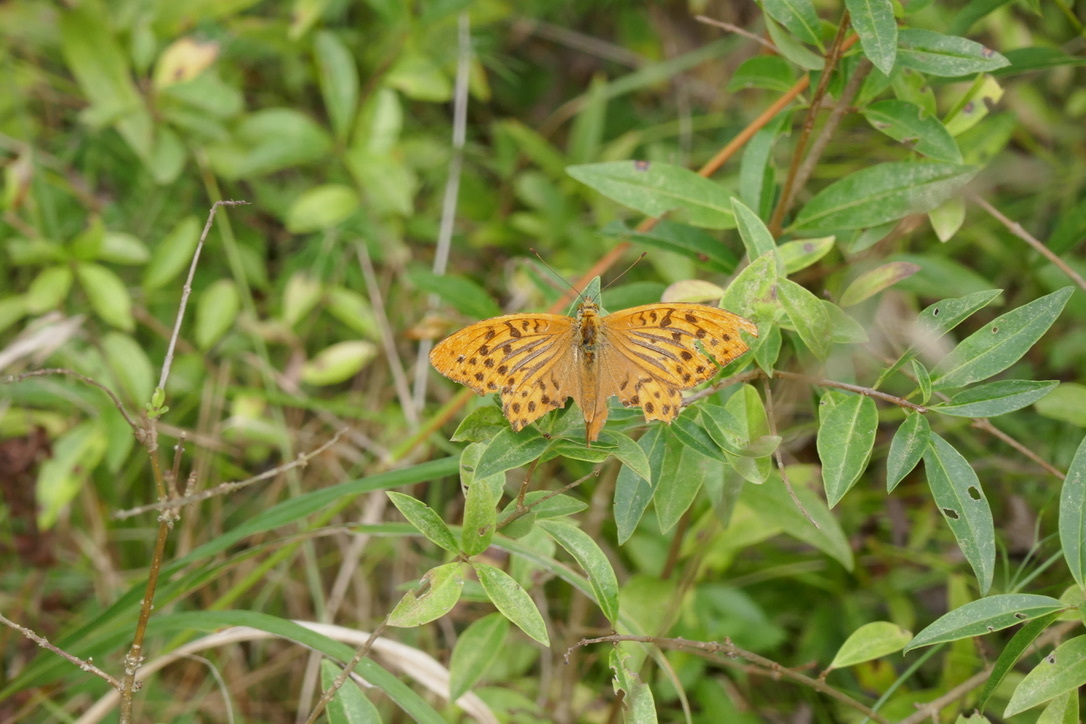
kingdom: Animalia
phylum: Arthropoda
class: Insecta
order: Lepidoptera
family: Nymphalidae
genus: Argynnis
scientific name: Argynnis paphia
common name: Silver-washed fritillary
